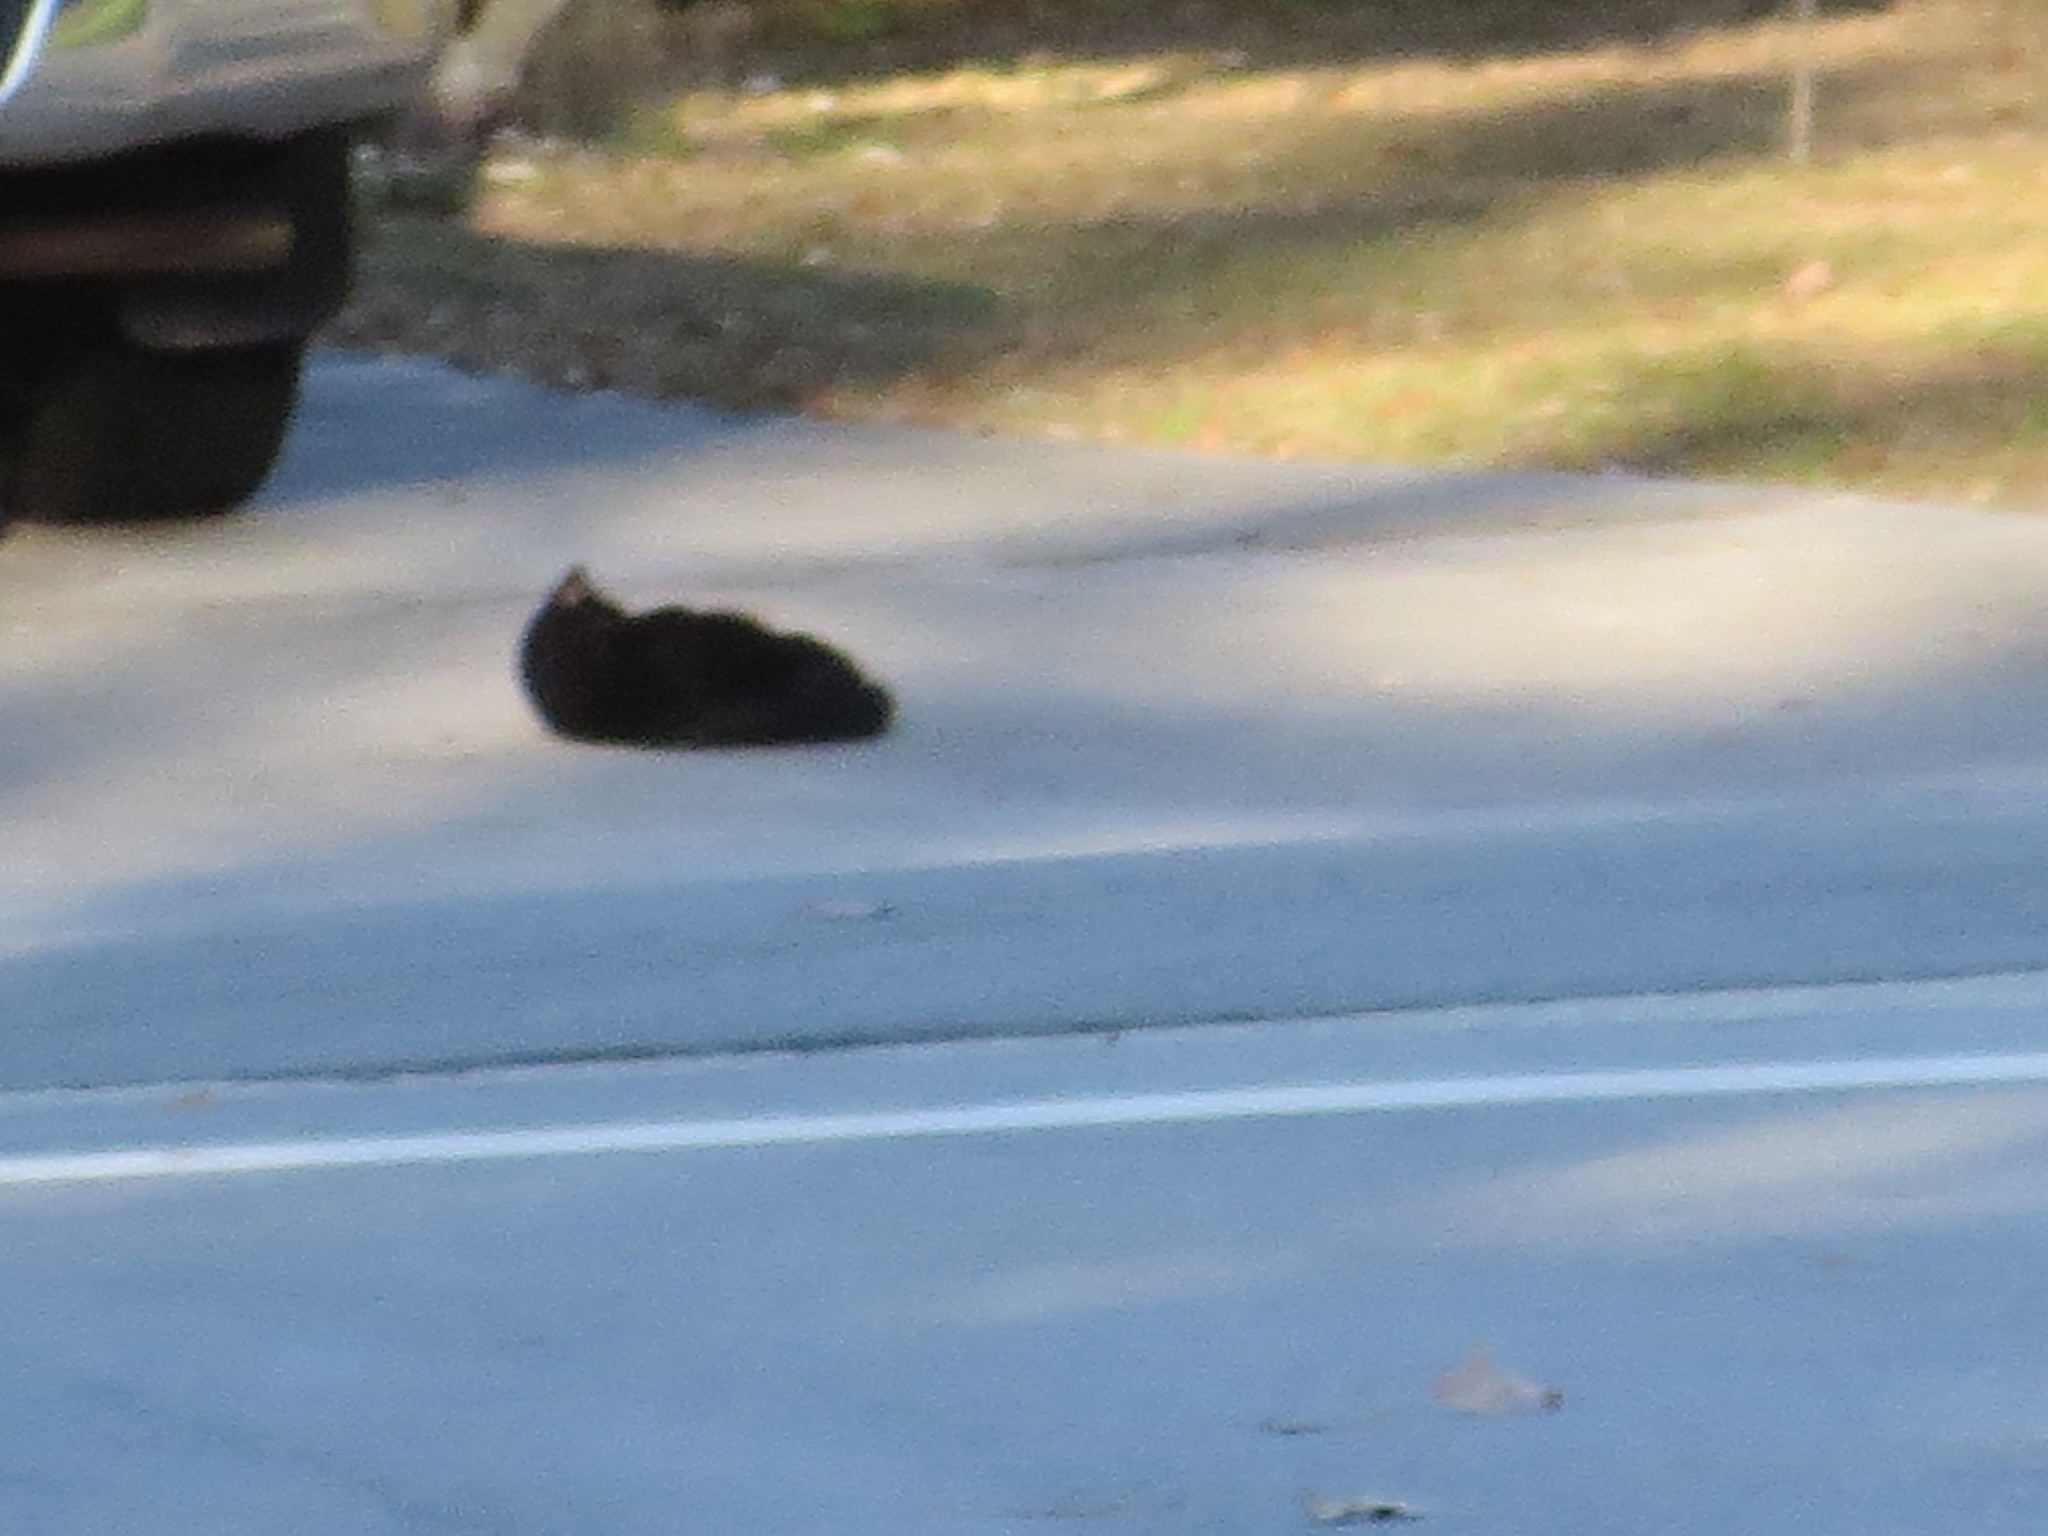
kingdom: Animalia
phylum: Chordata
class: Mammalia
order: Carnivora
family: Felidae
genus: Felis
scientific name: Felis catus
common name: Domestic cat
